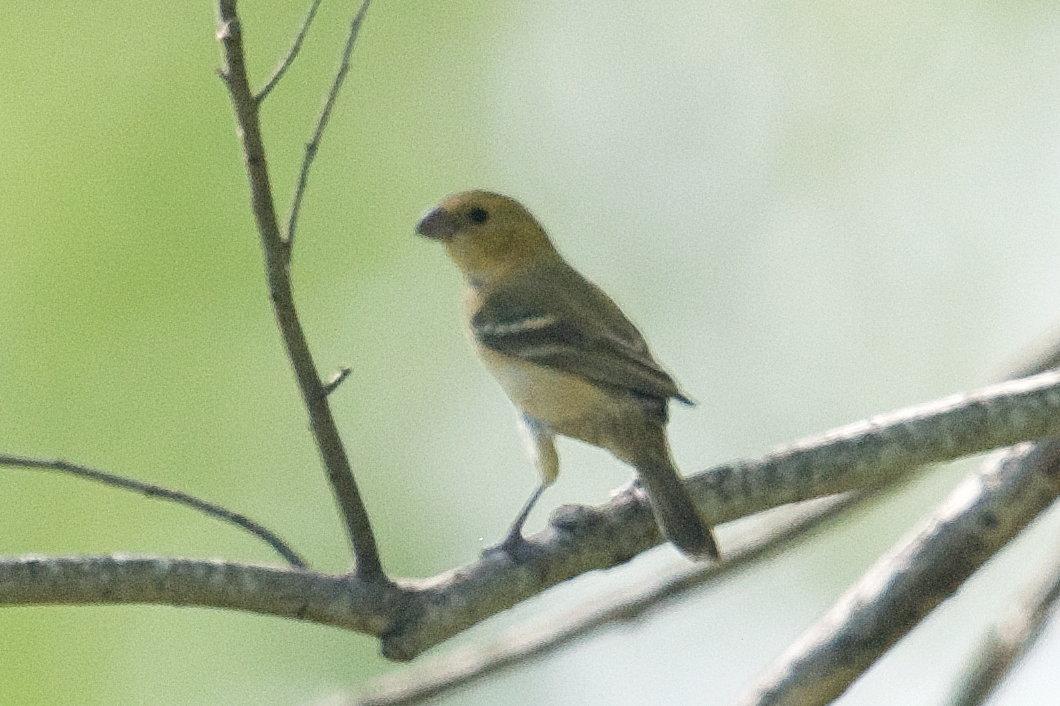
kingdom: Animalia
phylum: Chordata
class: Aves
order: Passeriformes
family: Thraupidae
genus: Sporophila
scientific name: Sporophila morelleti
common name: Morelet's seedeater
